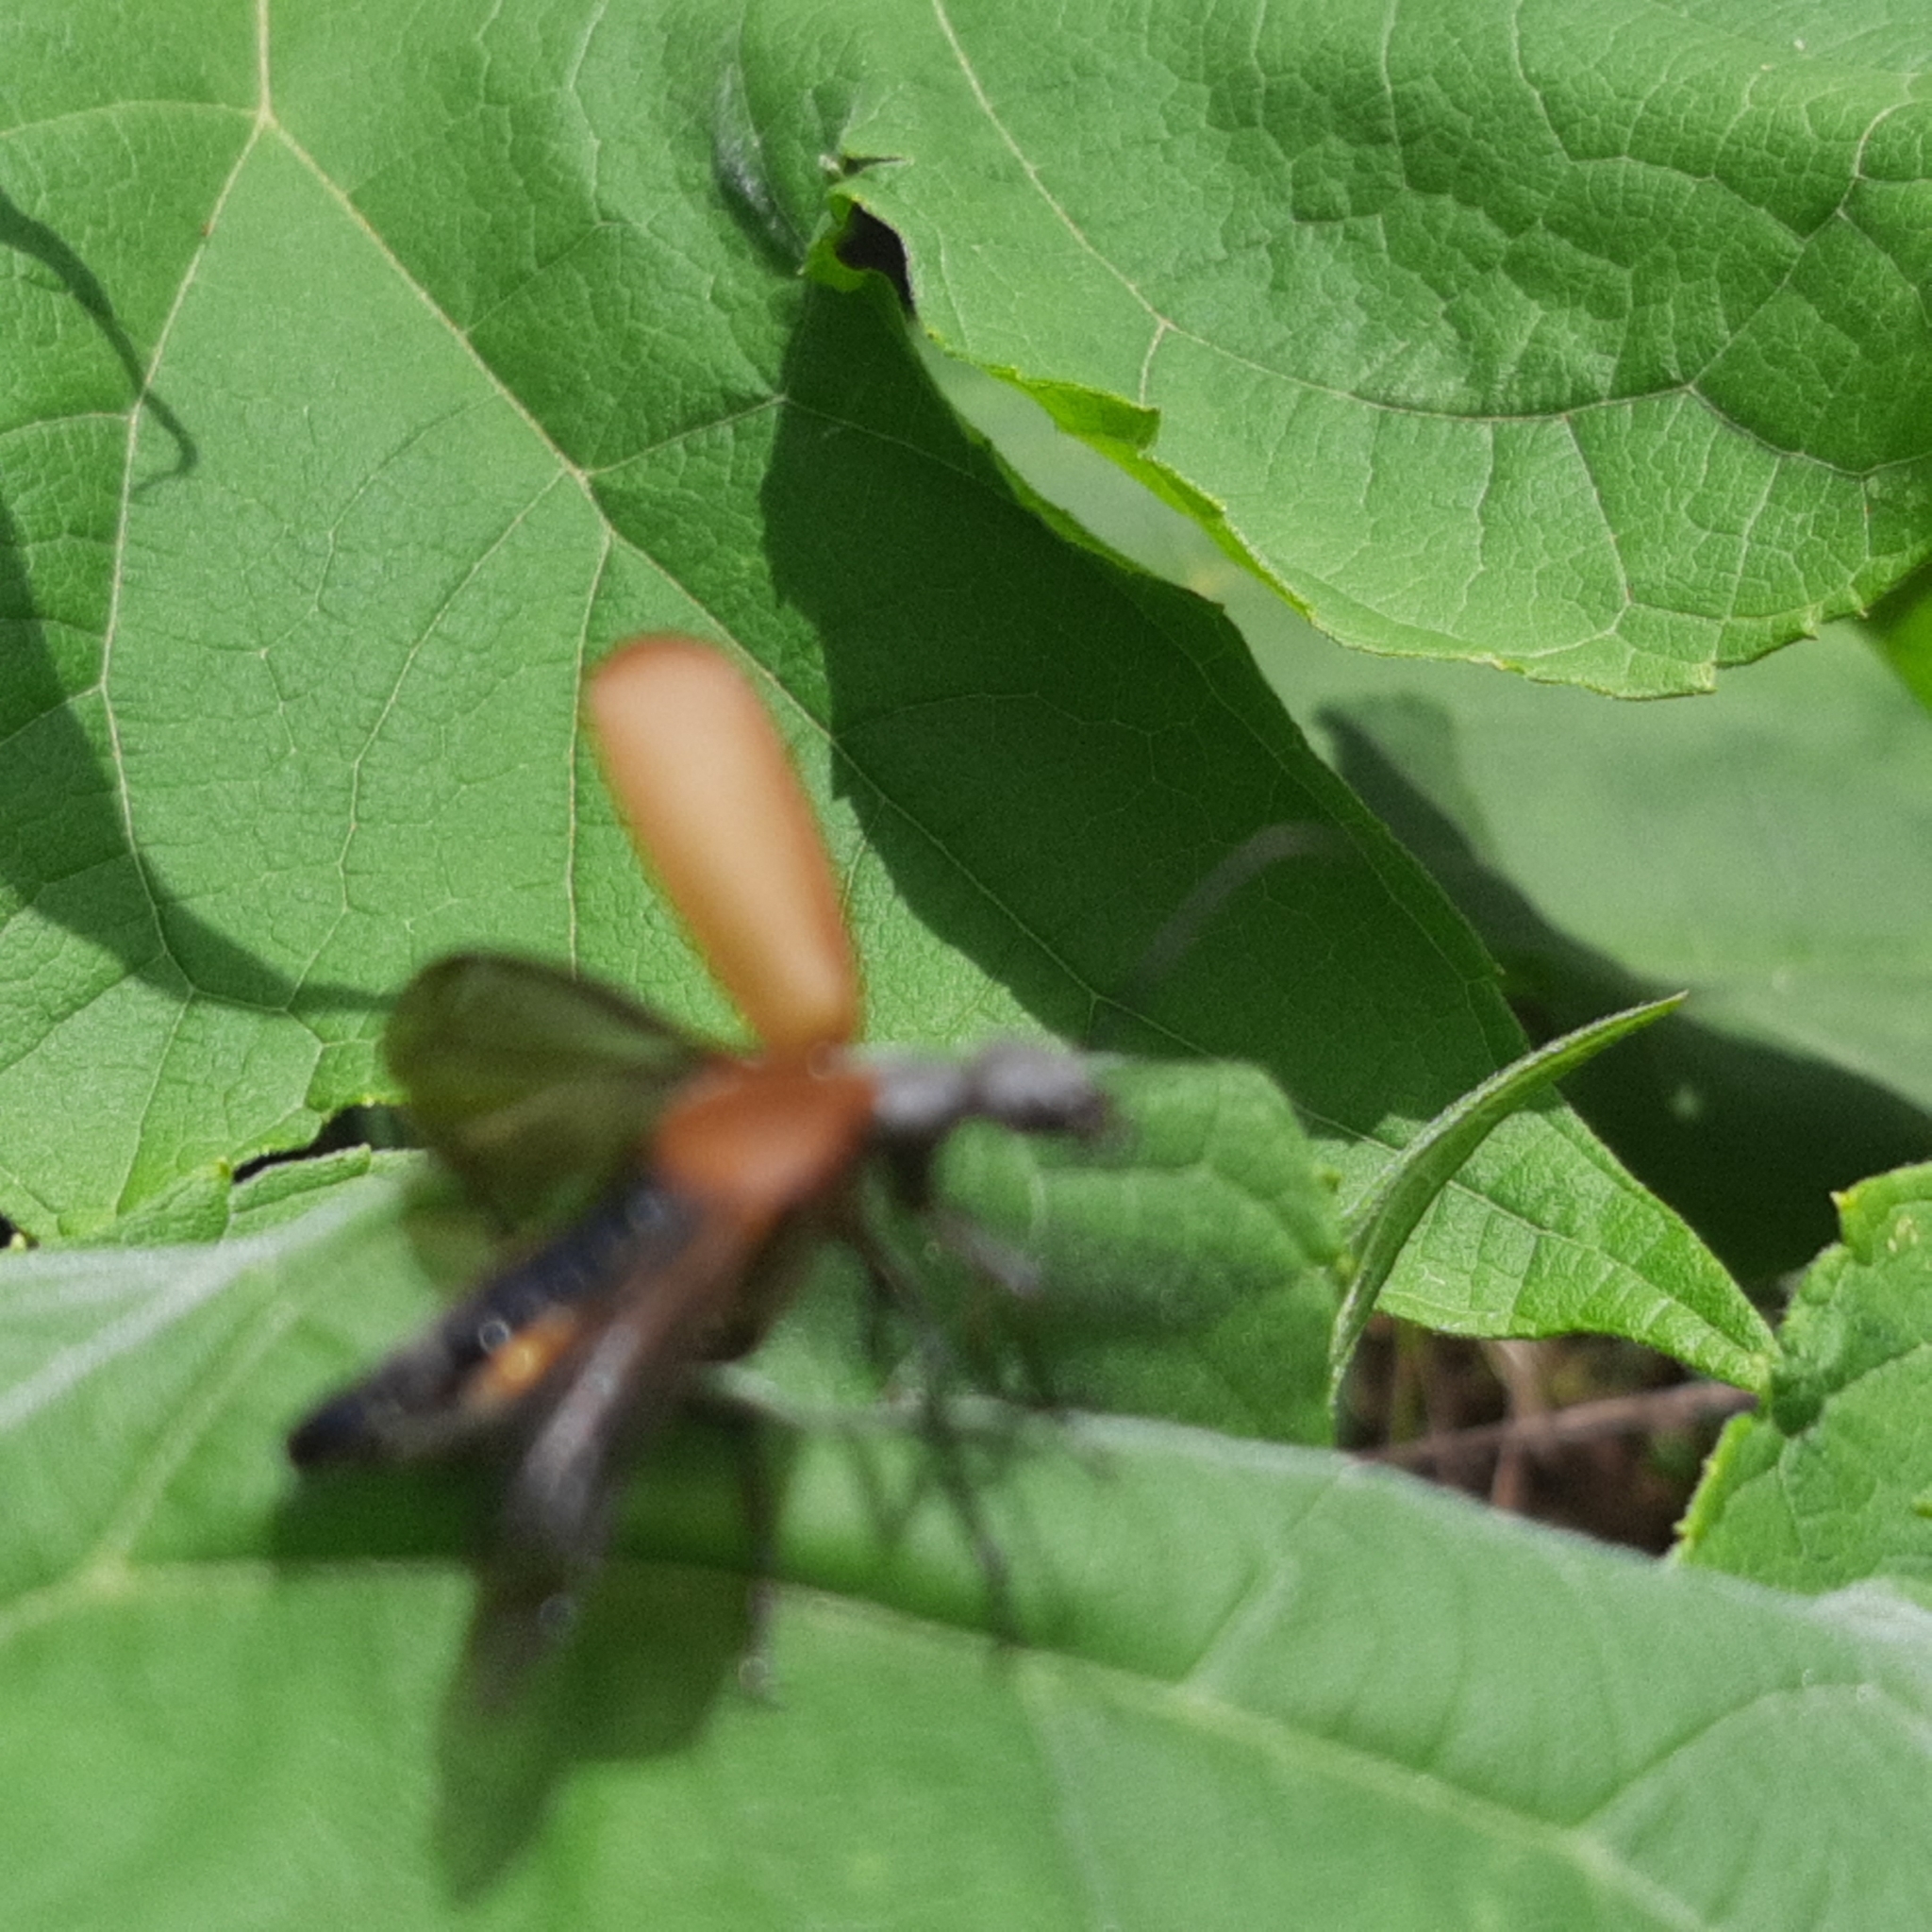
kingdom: Animalia
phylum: Arthropoda
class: Insecta
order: Coleoptera
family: Meloidae
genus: Epicauta
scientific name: Epicauta carmelita
